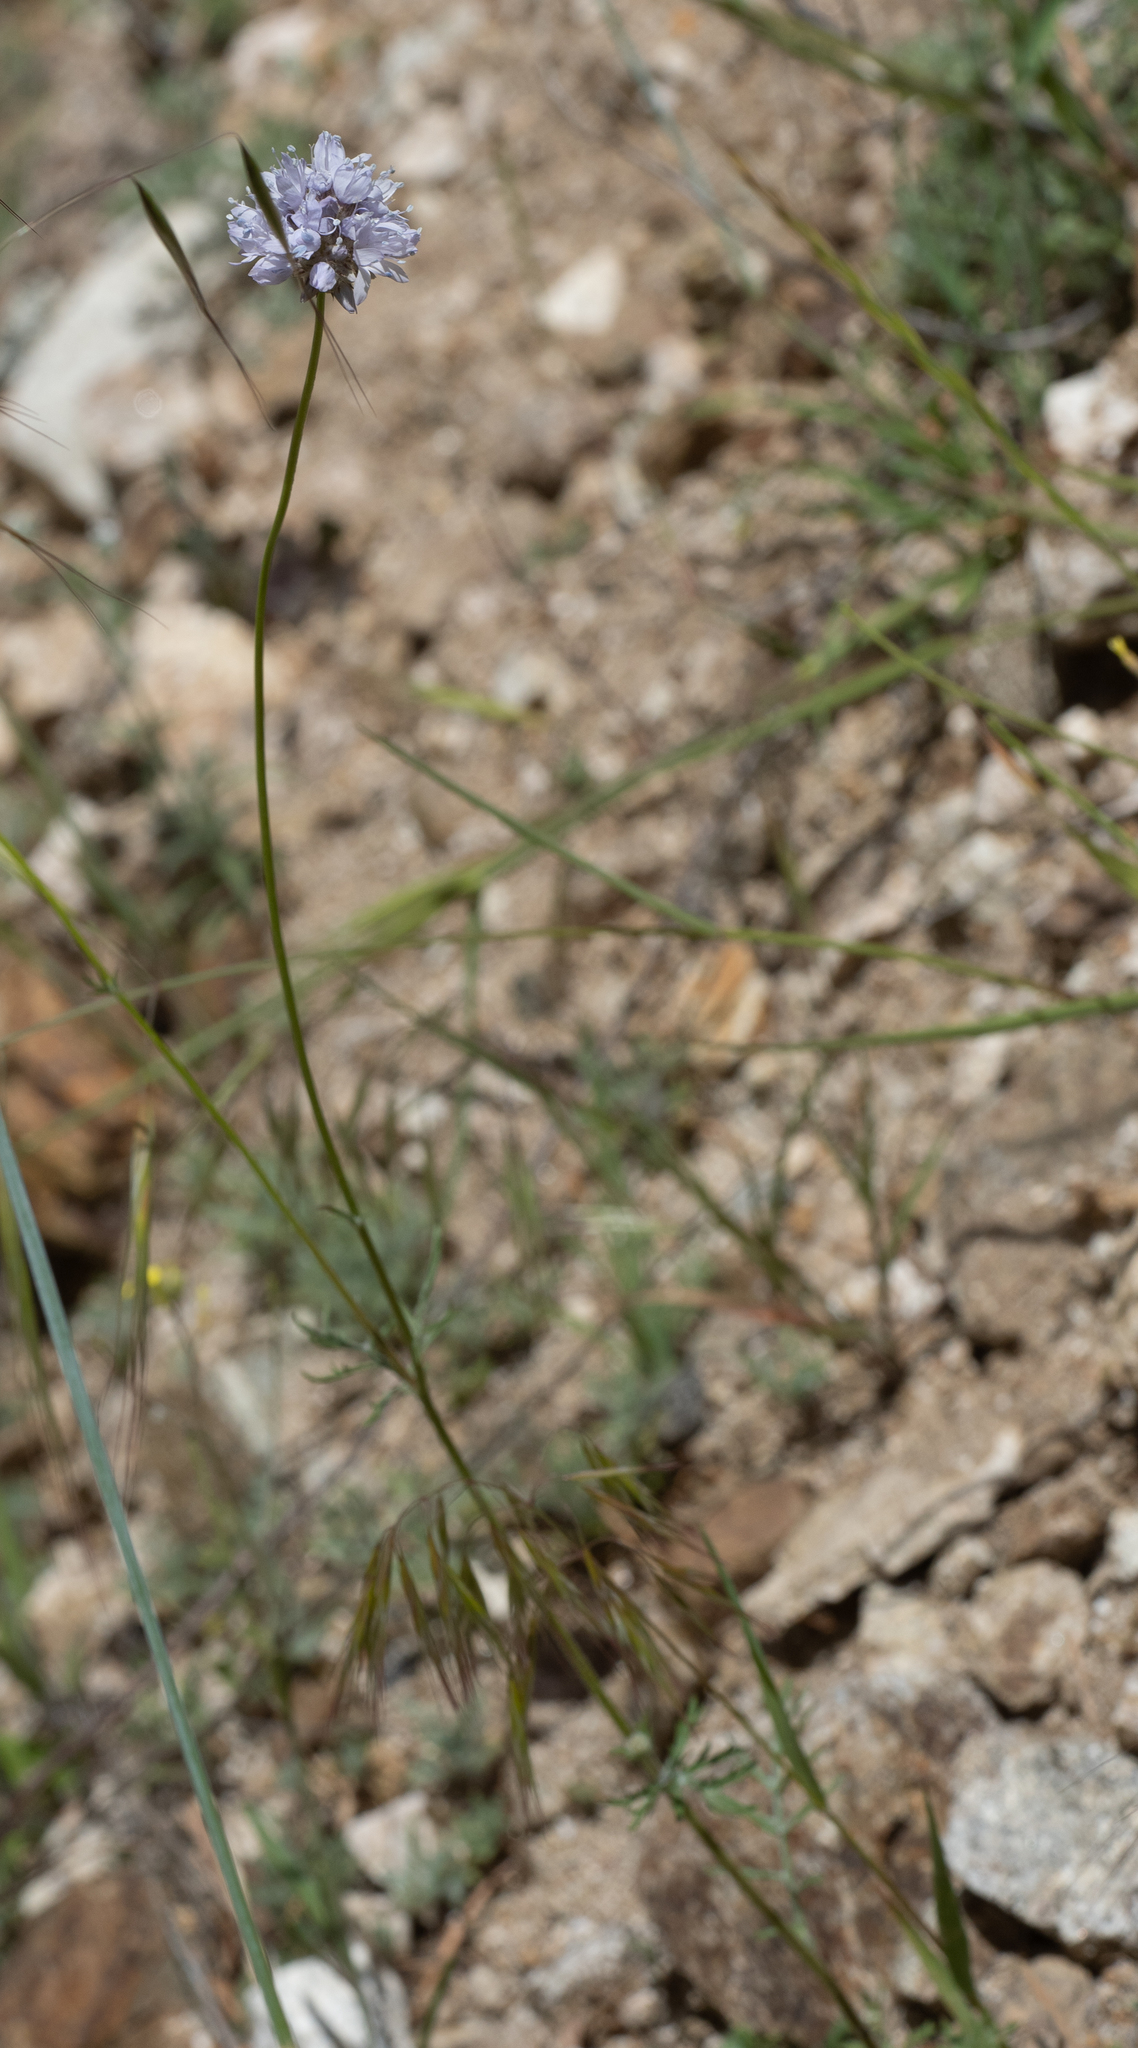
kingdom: Plantae
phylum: Tracheophyta
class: Magnoliopsida
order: Ericales
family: Polemoniaceae
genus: Gilia
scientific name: Gilia capitata
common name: Bluehead gilia
